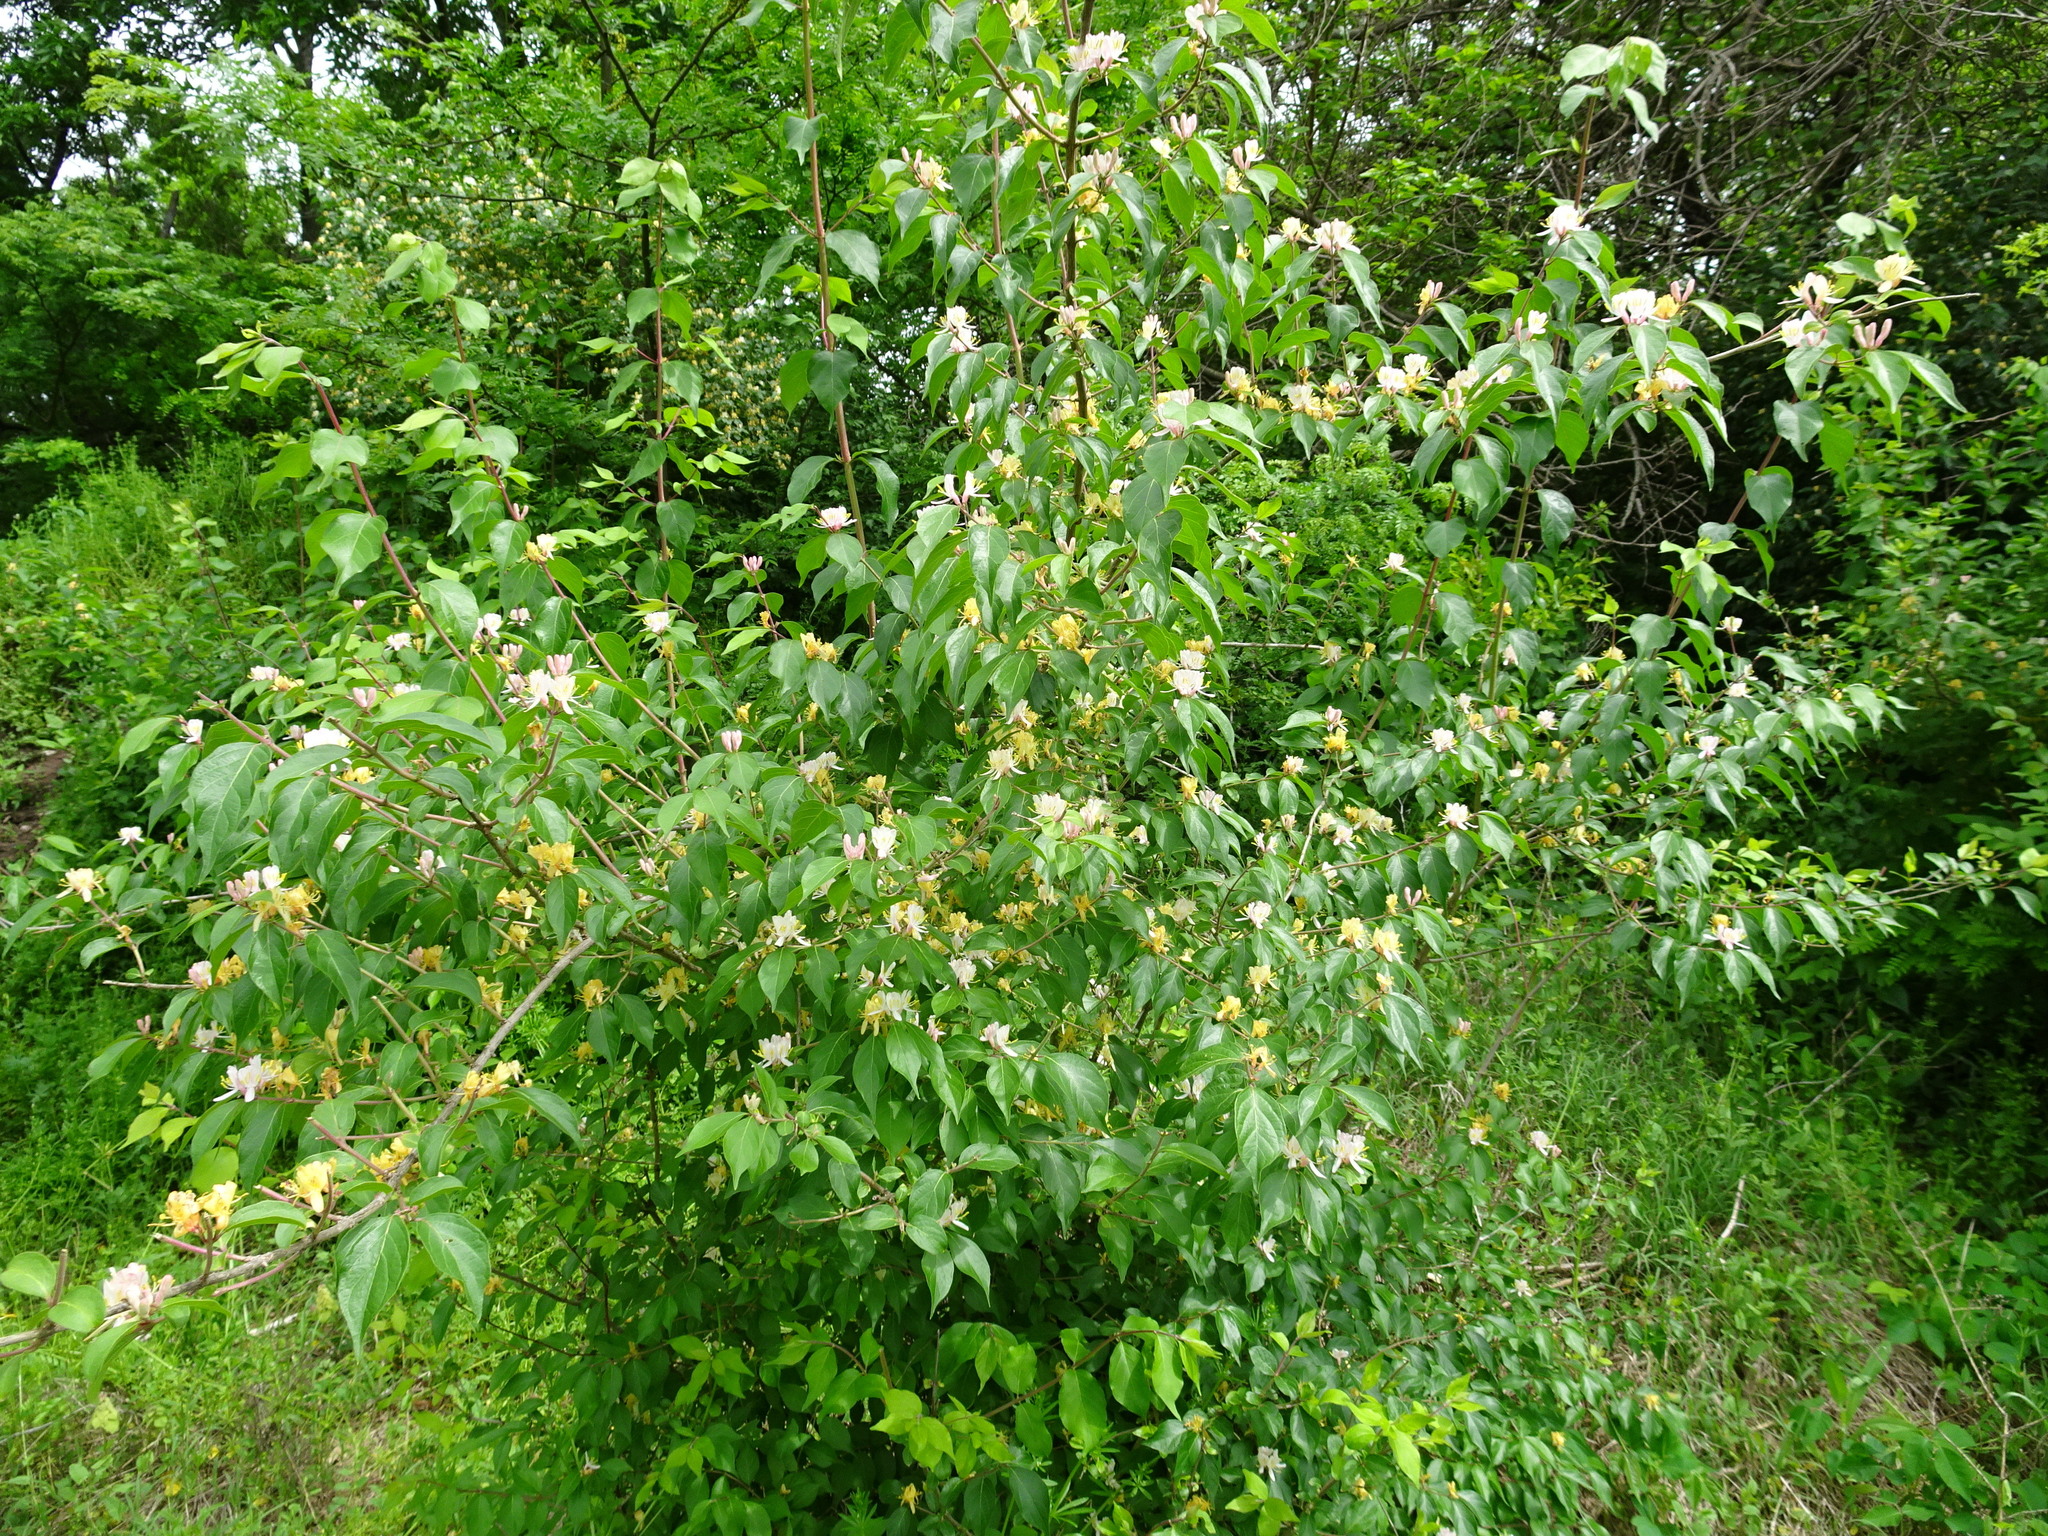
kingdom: Plantae
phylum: Tracheophyta
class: Magnoliopsida
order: Dipsacales
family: Caprifoliaceae
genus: Lonicera
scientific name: Lonicera maackii
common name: Amur honeysuckle
